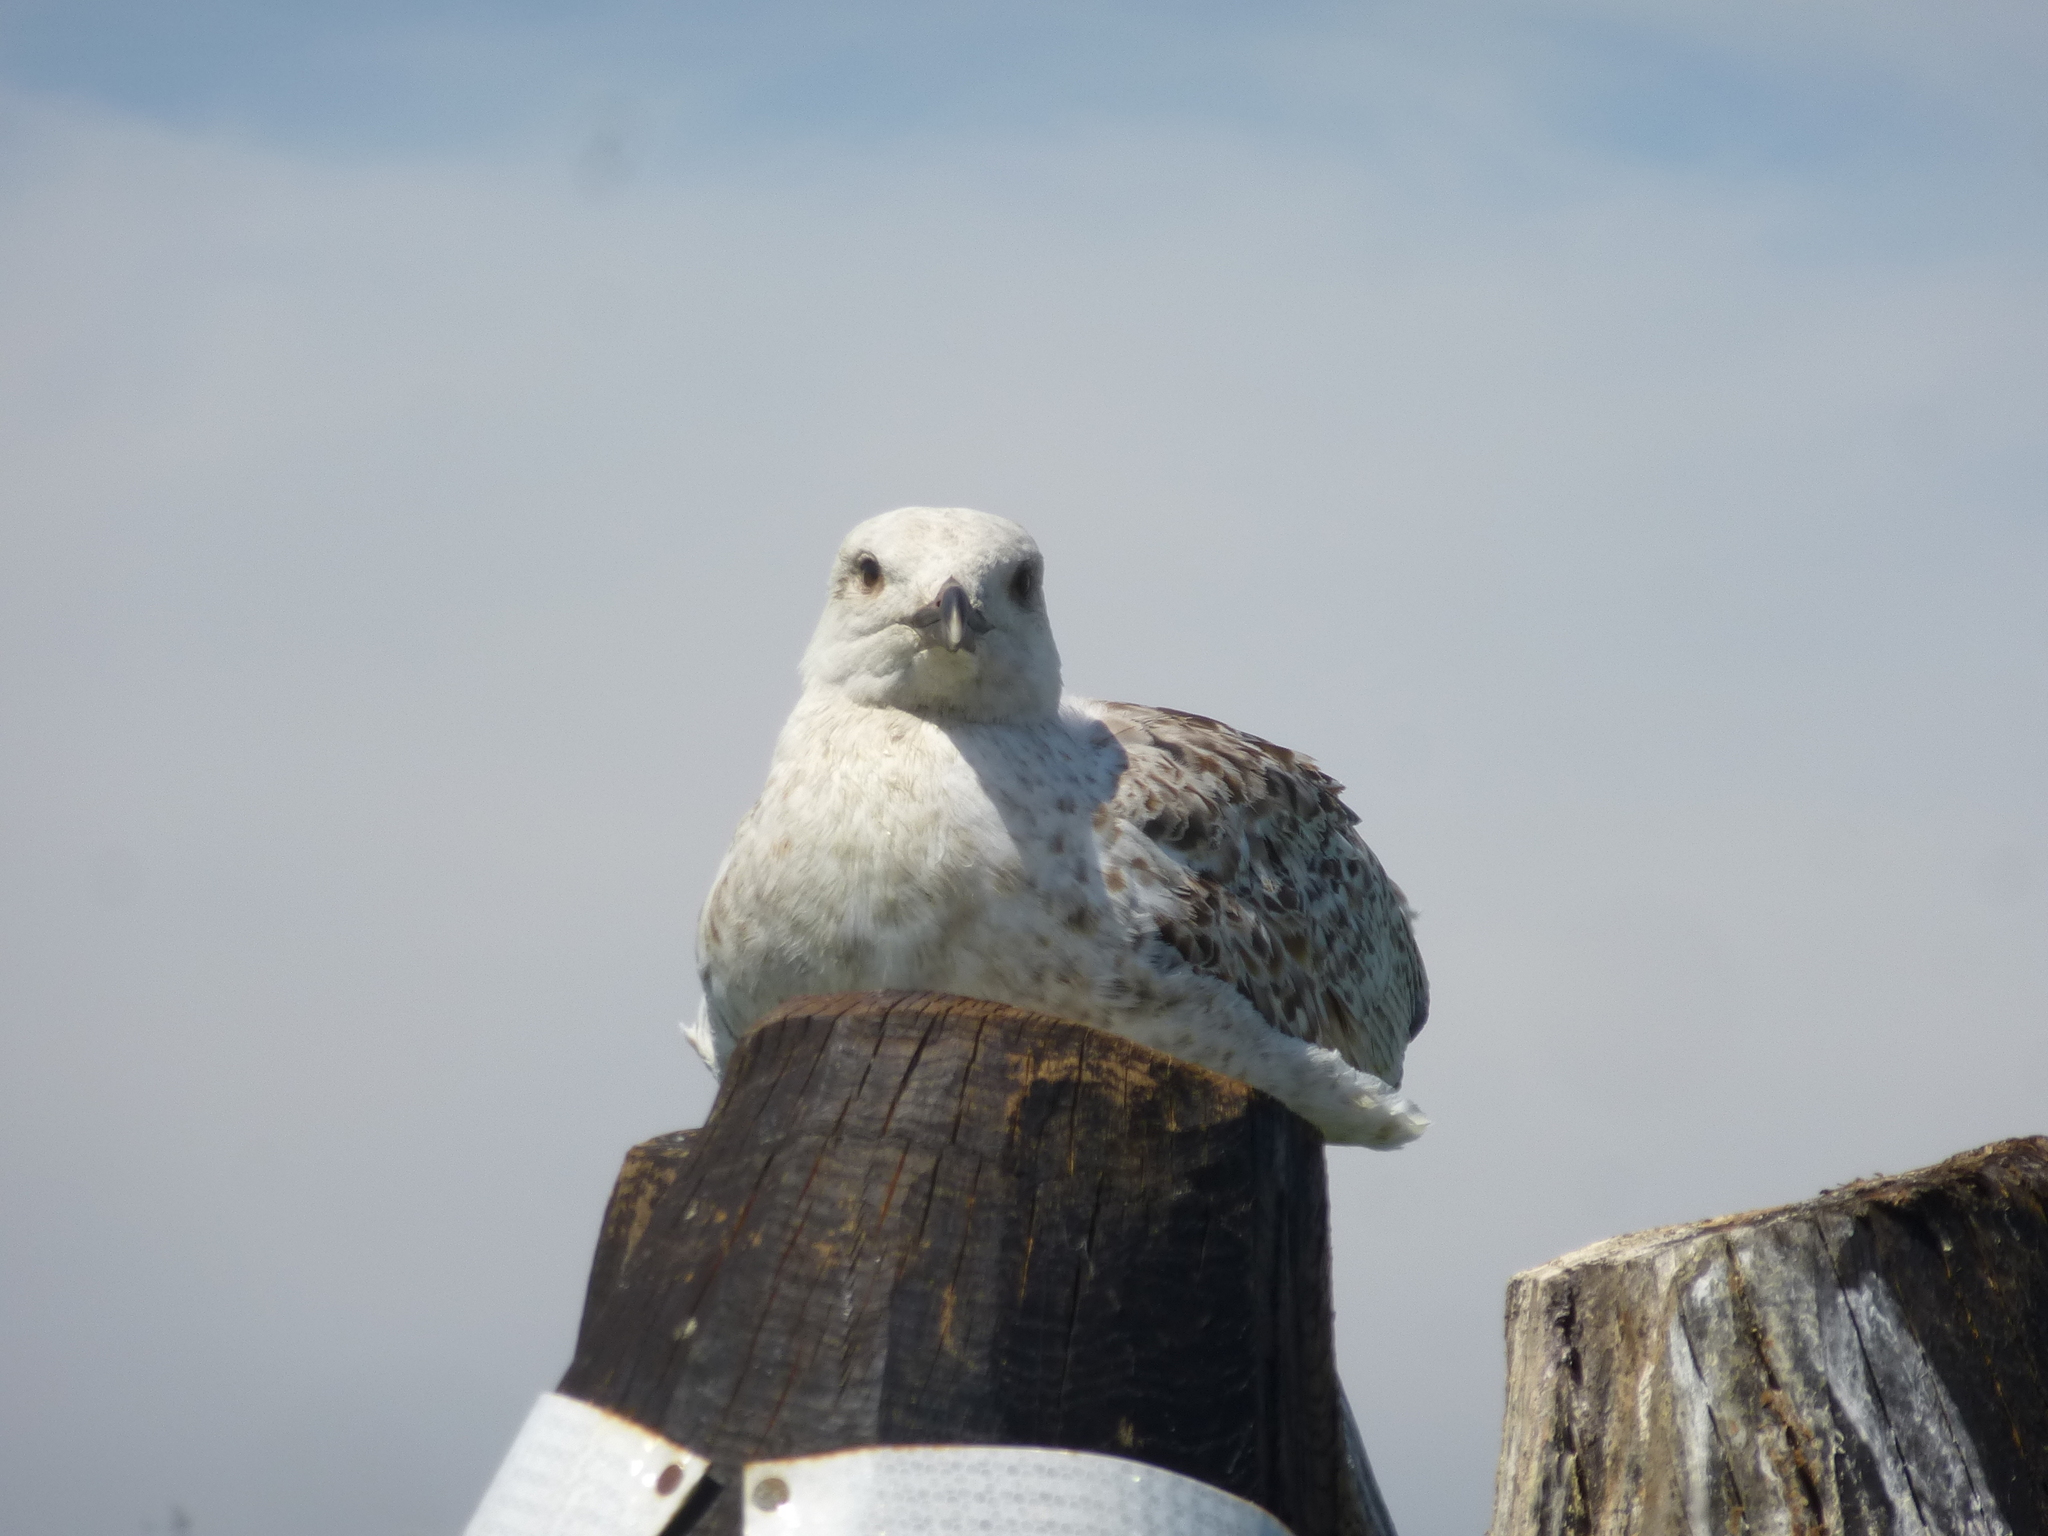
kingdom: Animalia
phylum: Chordata
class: Aves
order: Charadriiformes
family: Laridae
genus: Larus
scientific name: Larus michahellis
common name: Yellow-legged gull
